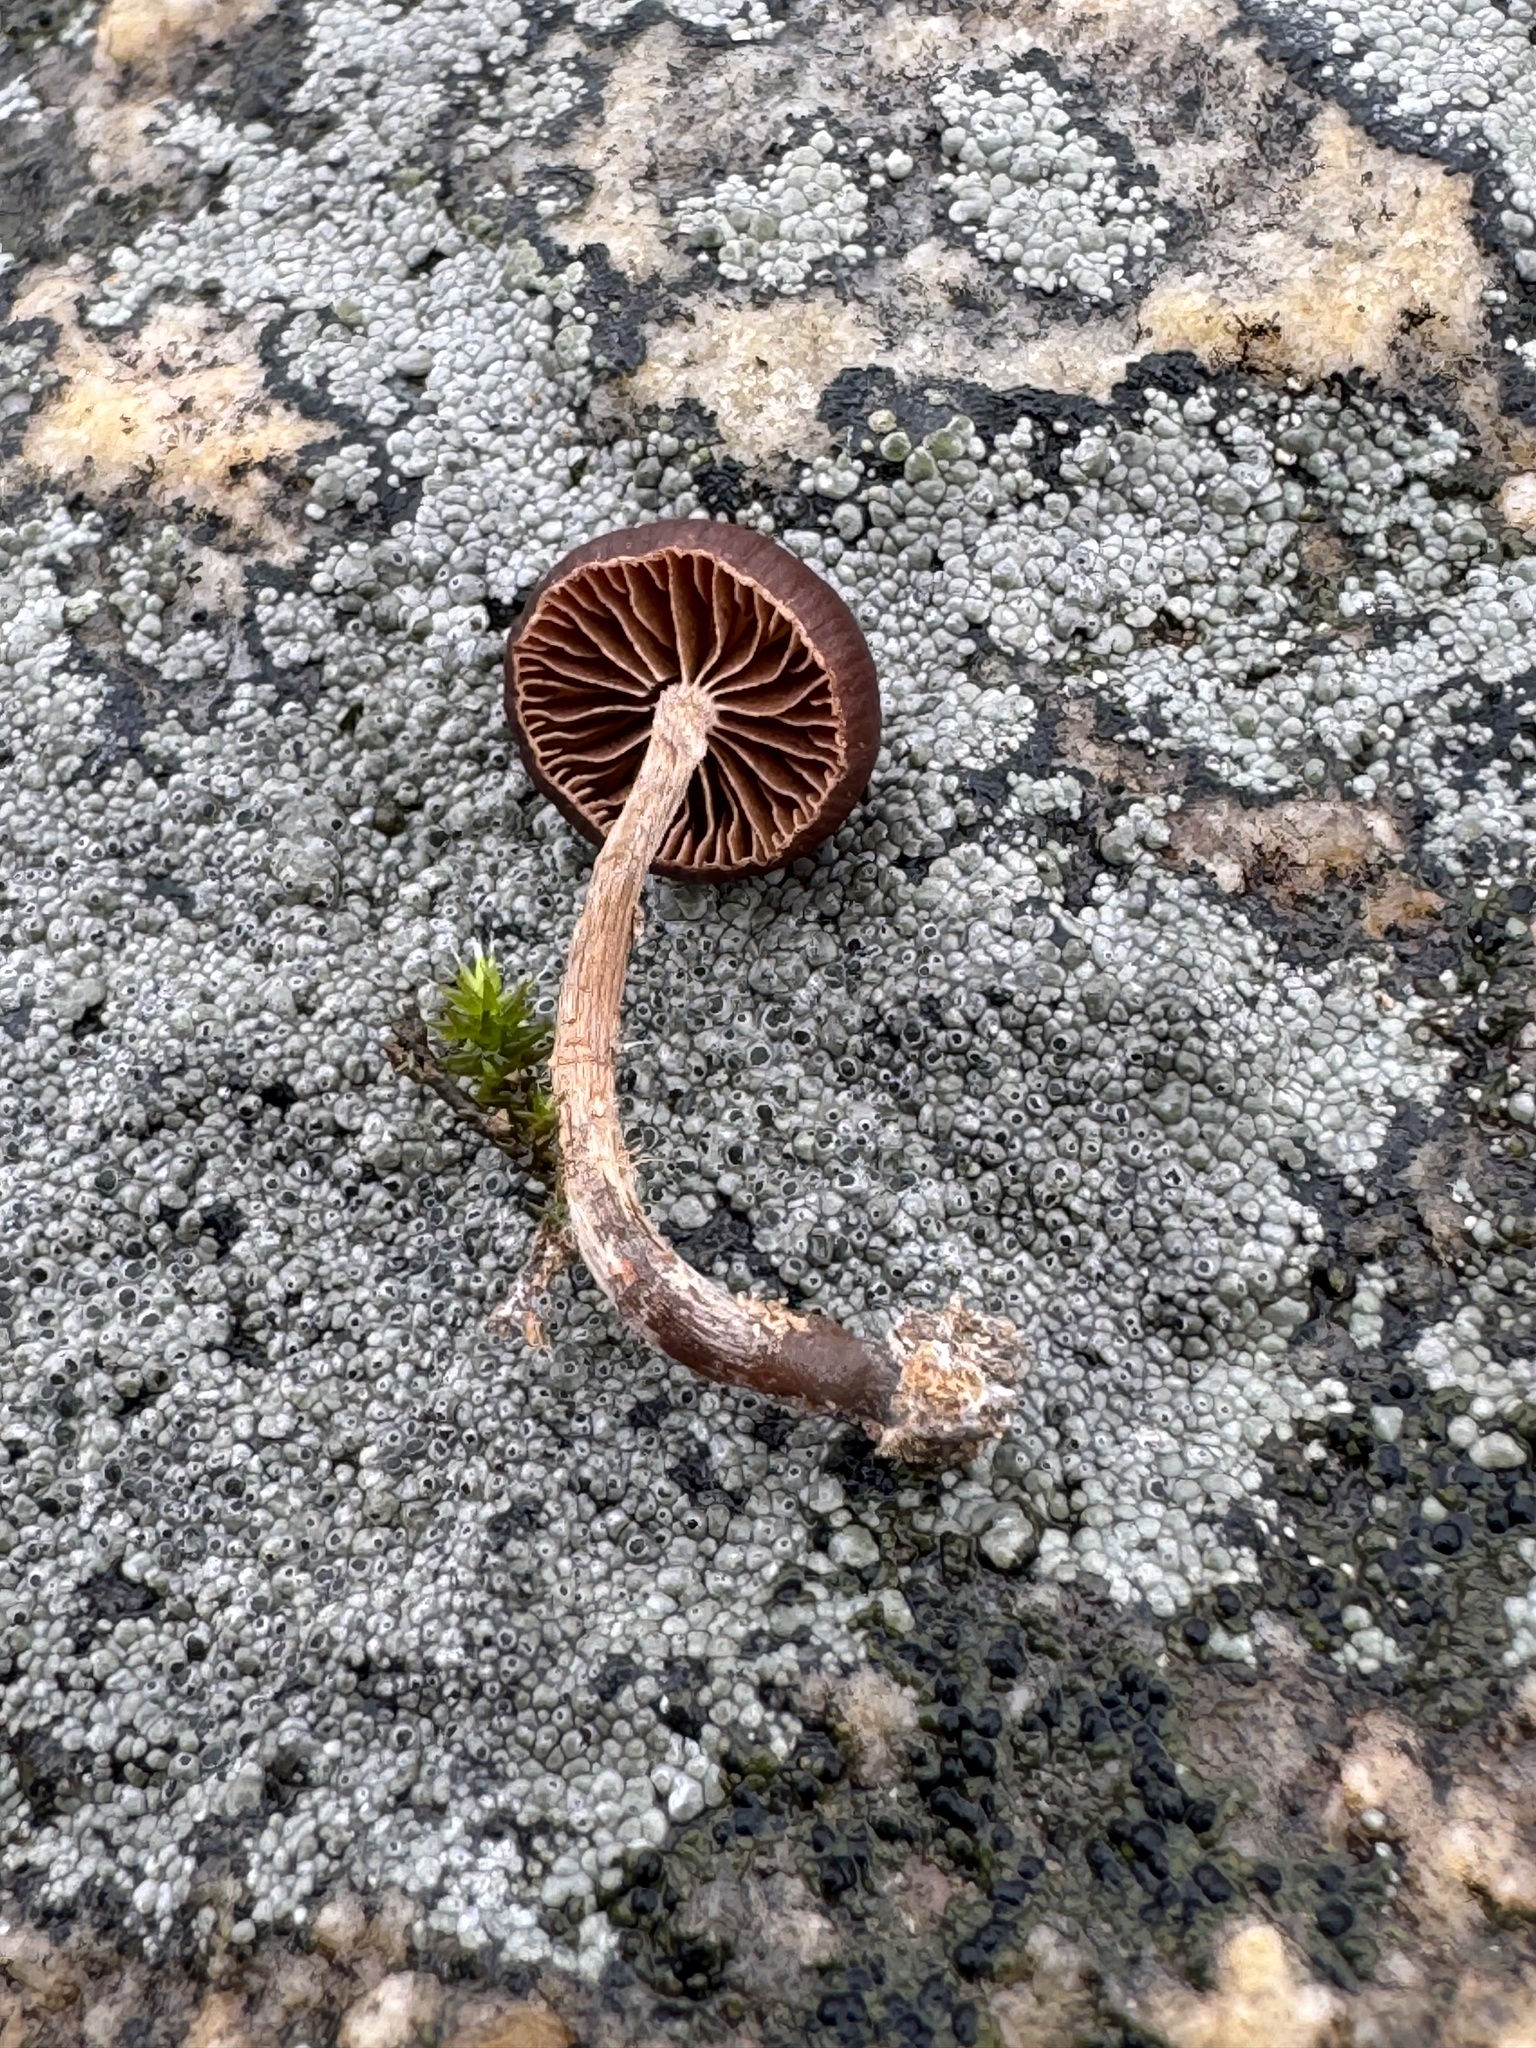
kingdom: Fungi
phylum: Basidiomycota
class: Agaricomycetes
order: Agaricales
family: Strophariaceae
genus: Deconica
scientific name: Deconica montana
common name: Mountain moss deconica
